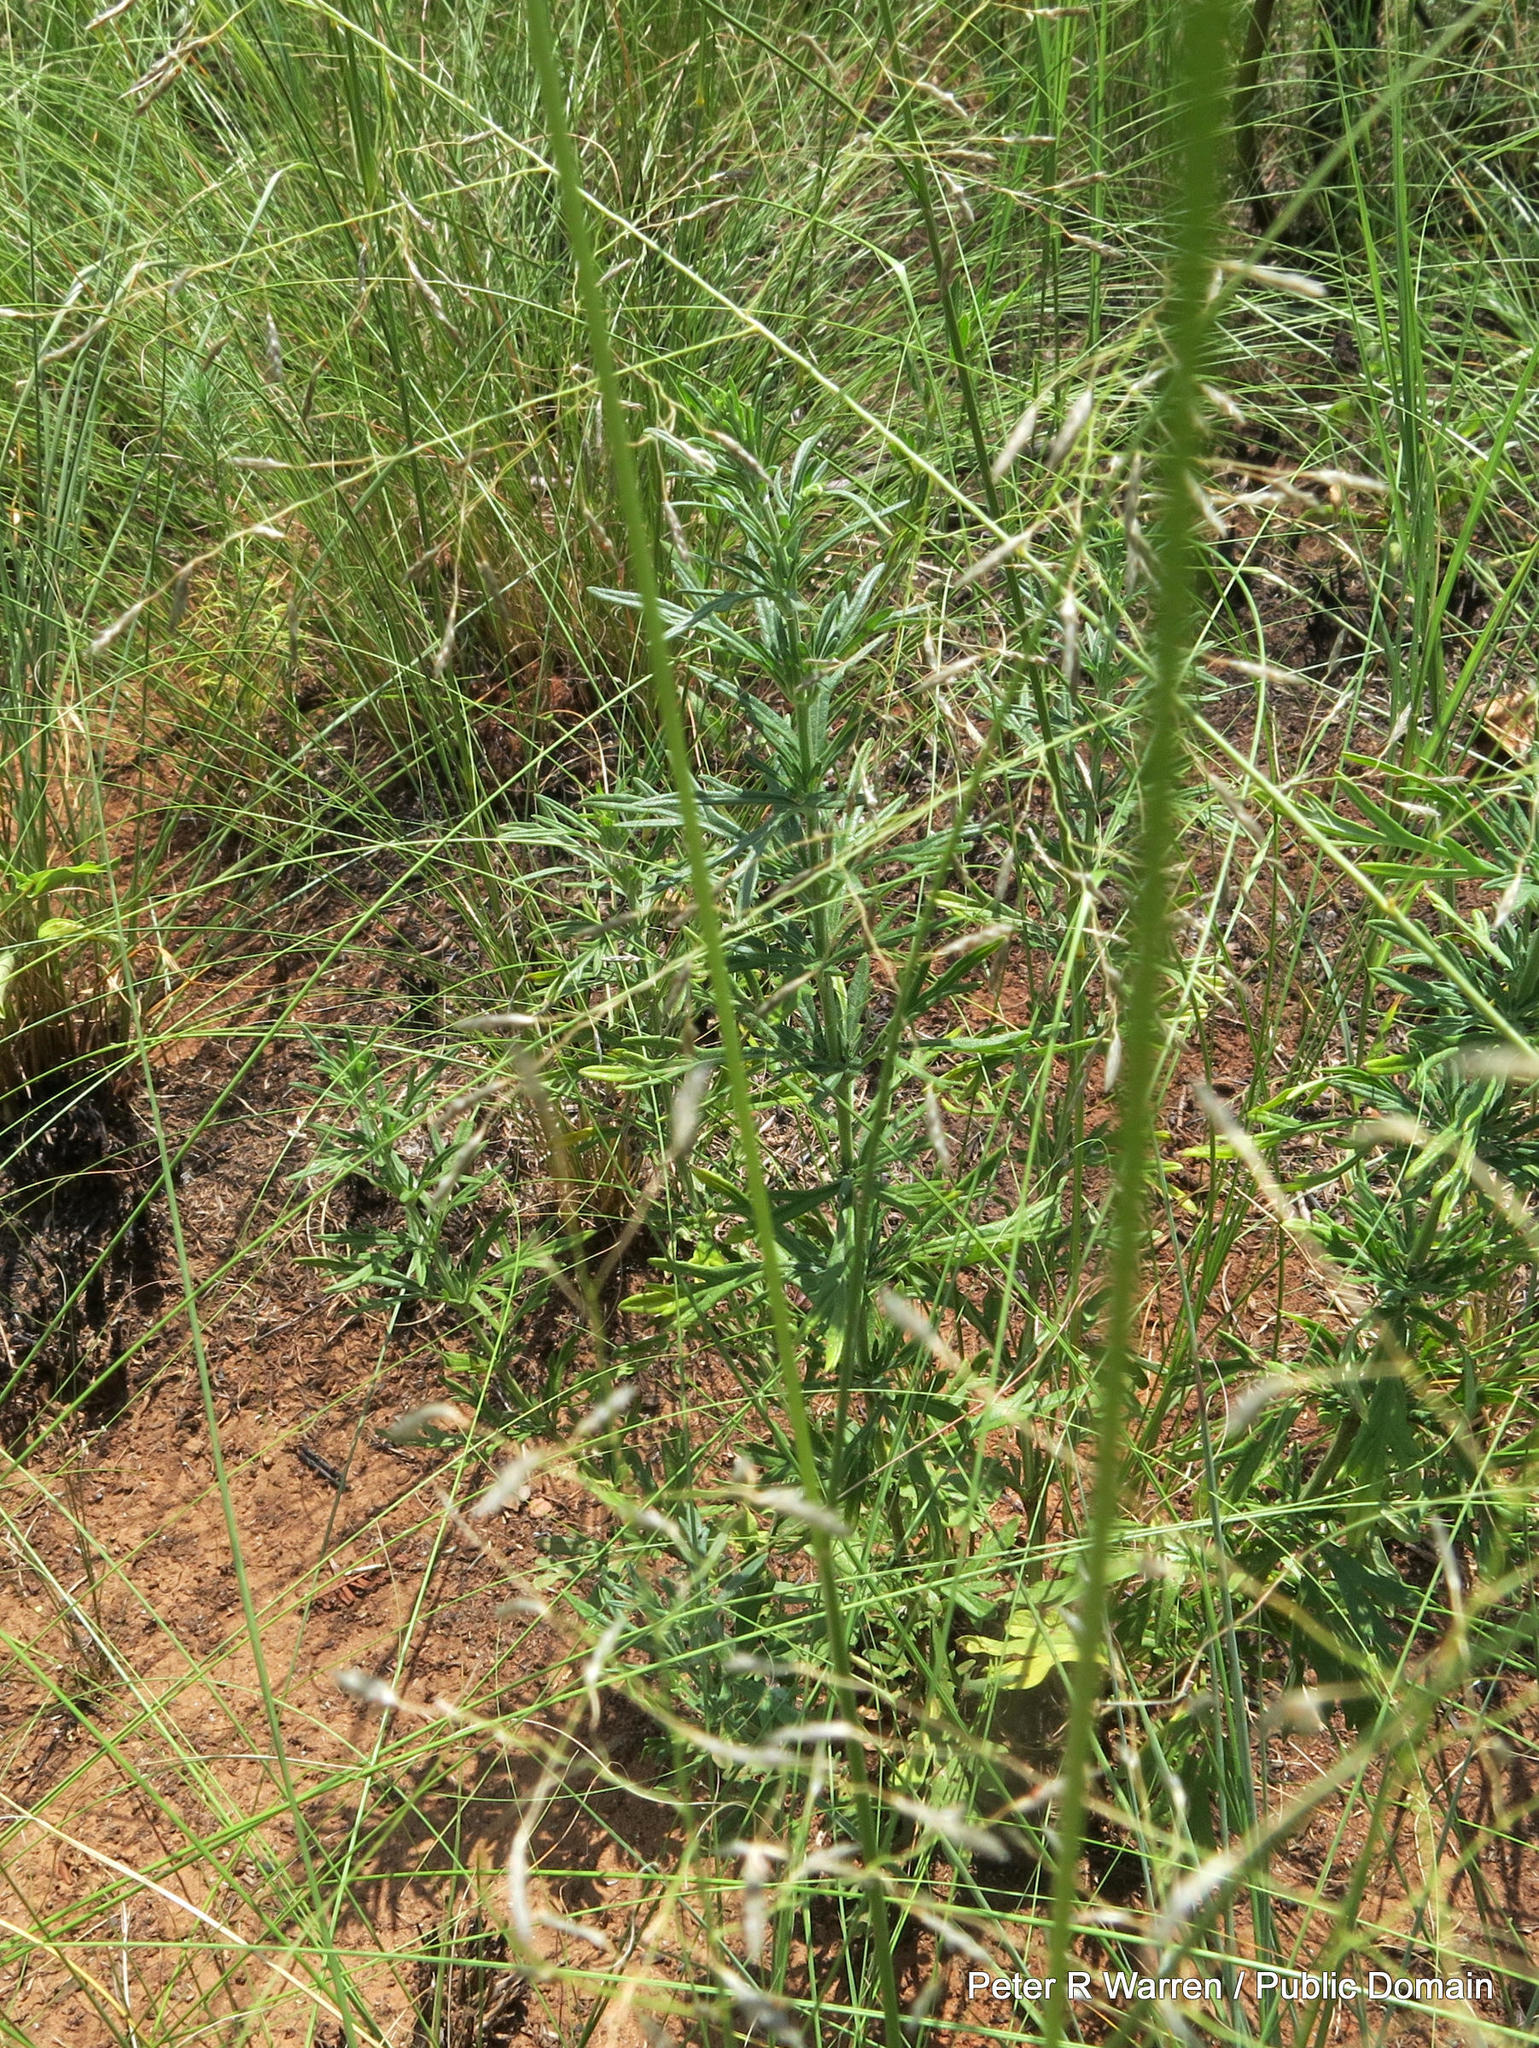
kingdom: Plantae
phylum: Tracheophyta
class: Magnoliopsida
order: Lamiales
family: Lamiaceae
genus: Teucrium
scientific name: Teucrium trifidum
